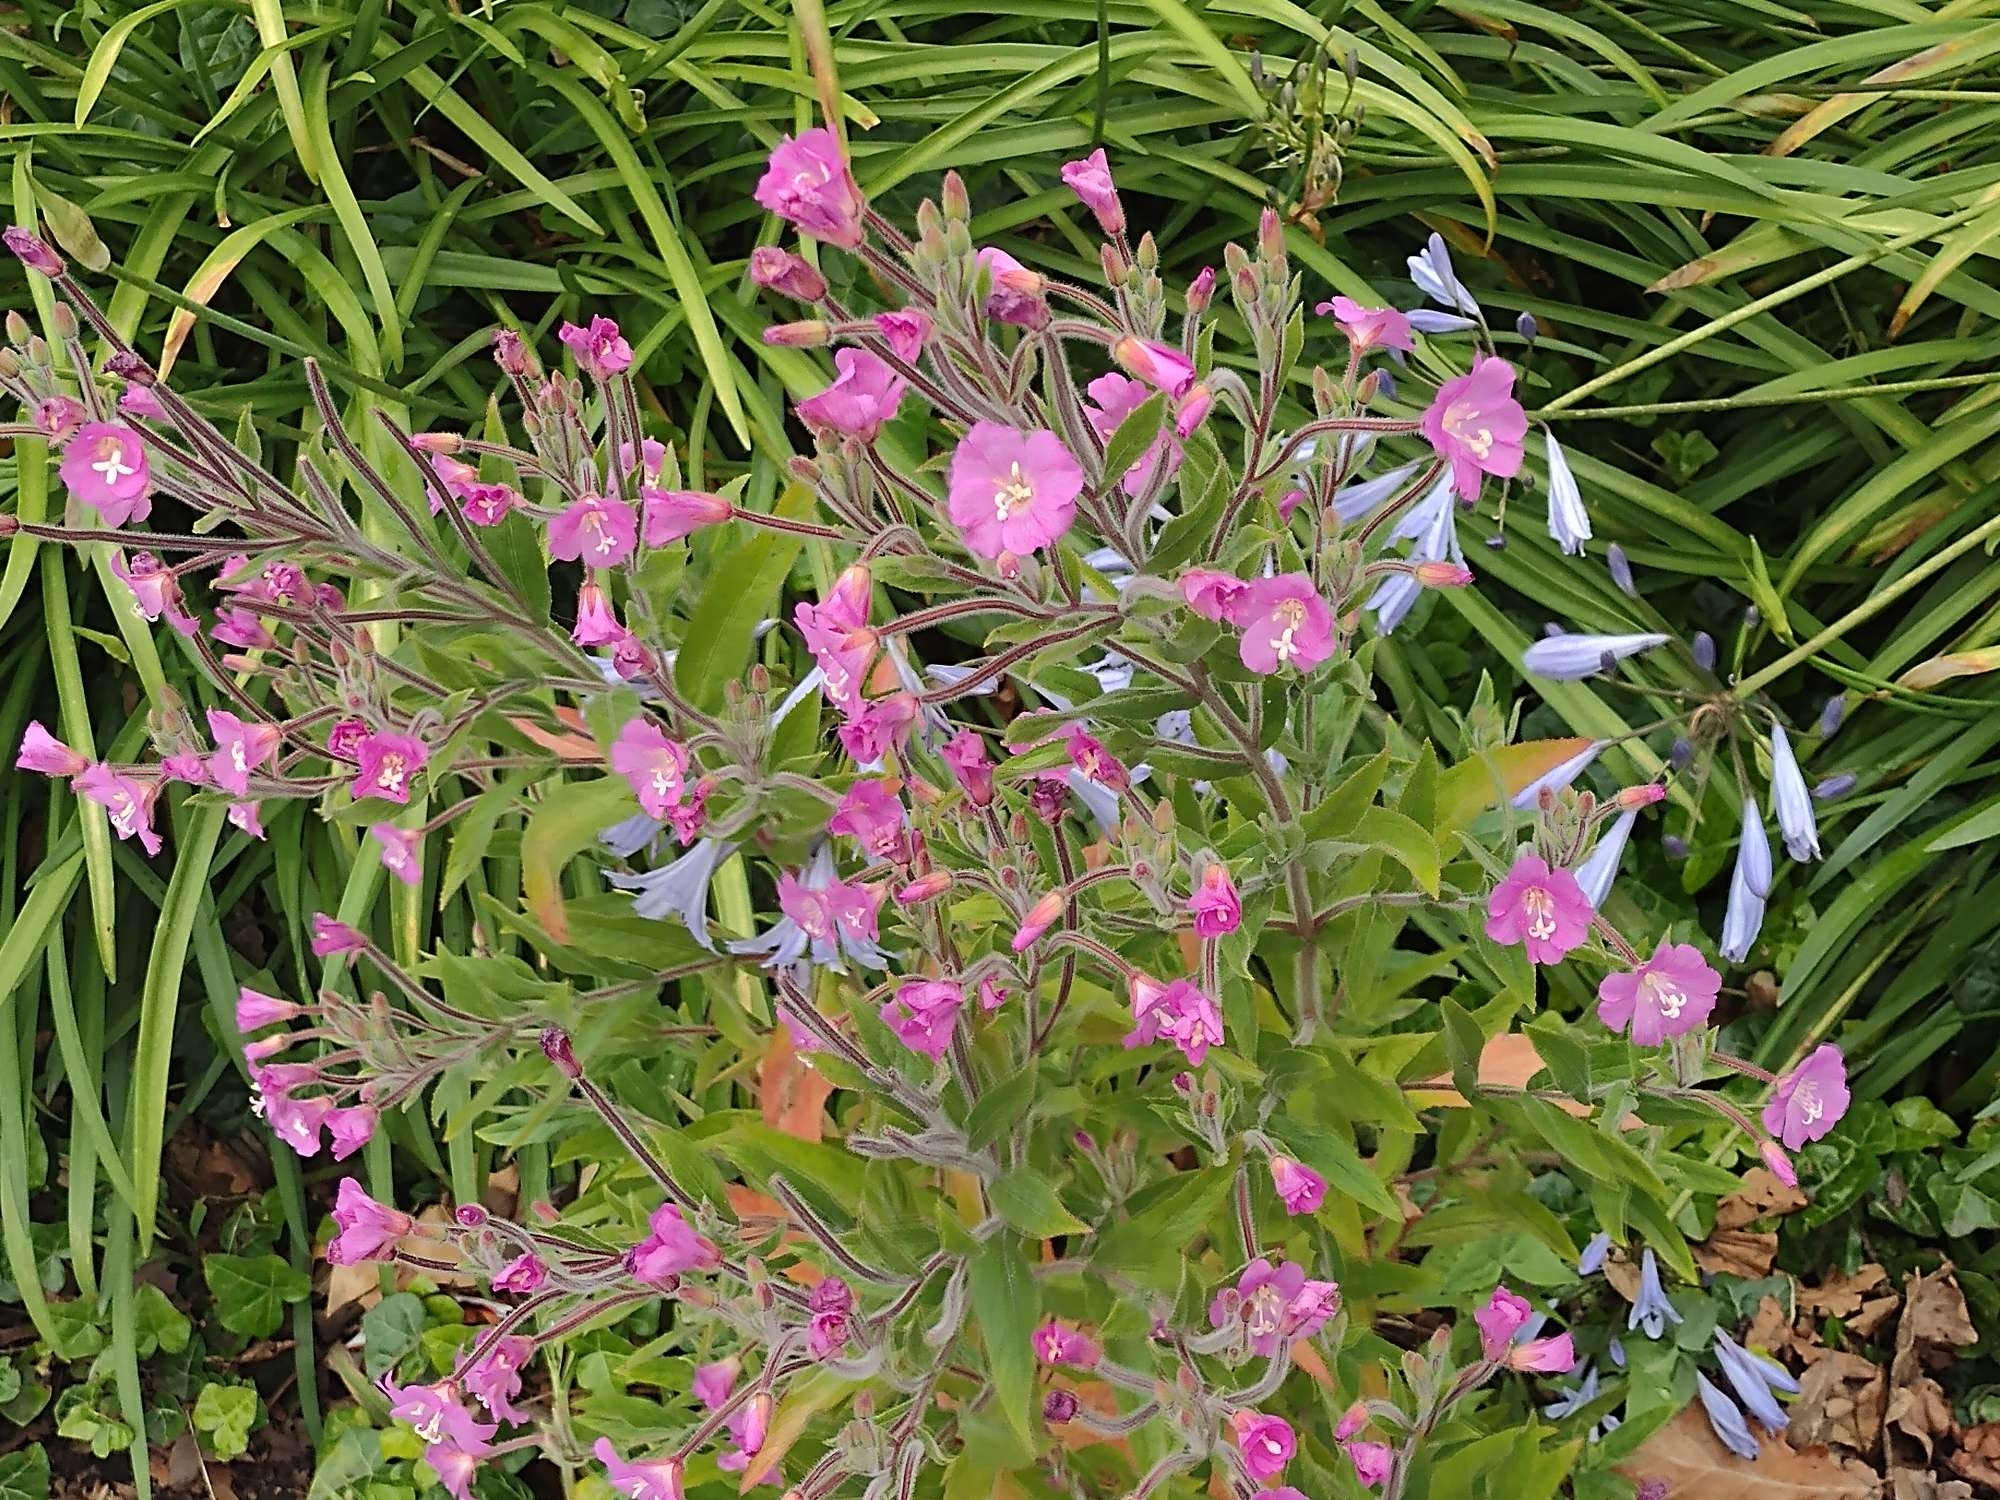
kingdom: Plantae
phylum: Tracheophyta
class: Magnoliopsida
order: Myrtales
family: Onagraceae
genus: Epilobium
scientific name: Epilobium hirsutum
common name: Great willowherb
